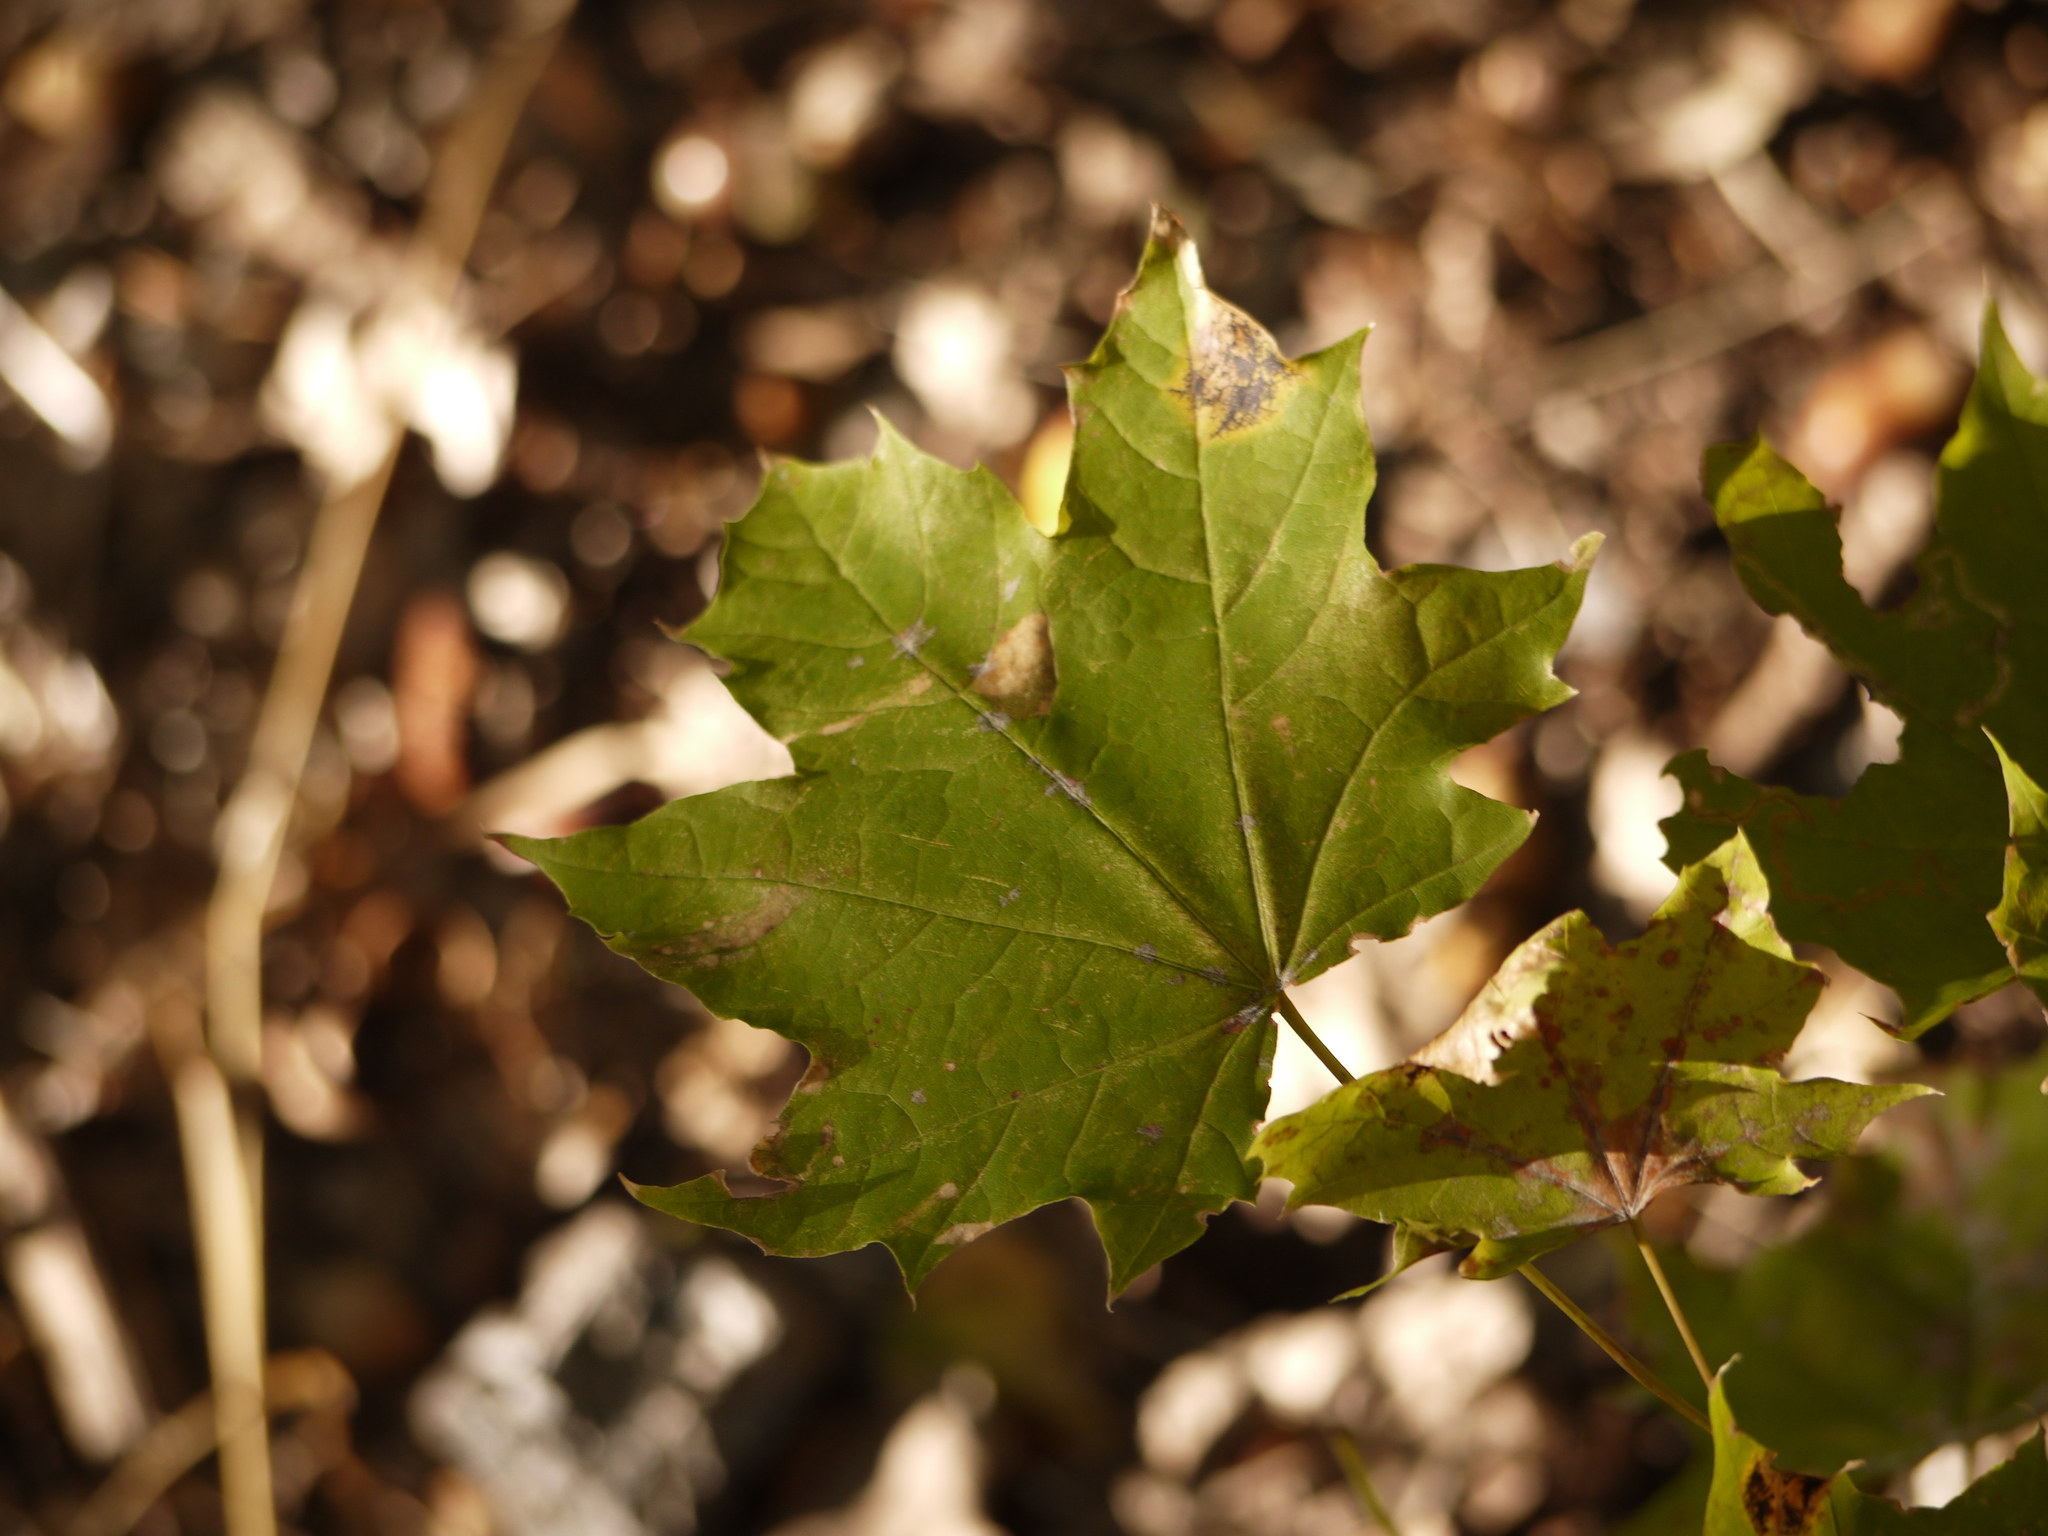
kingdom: Plantae
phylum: Tracheophyta
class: Magnoliopsida
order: Sapindales
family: Sapindaceae
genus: Acer
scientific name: Acer platanoides
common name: Norway maple
